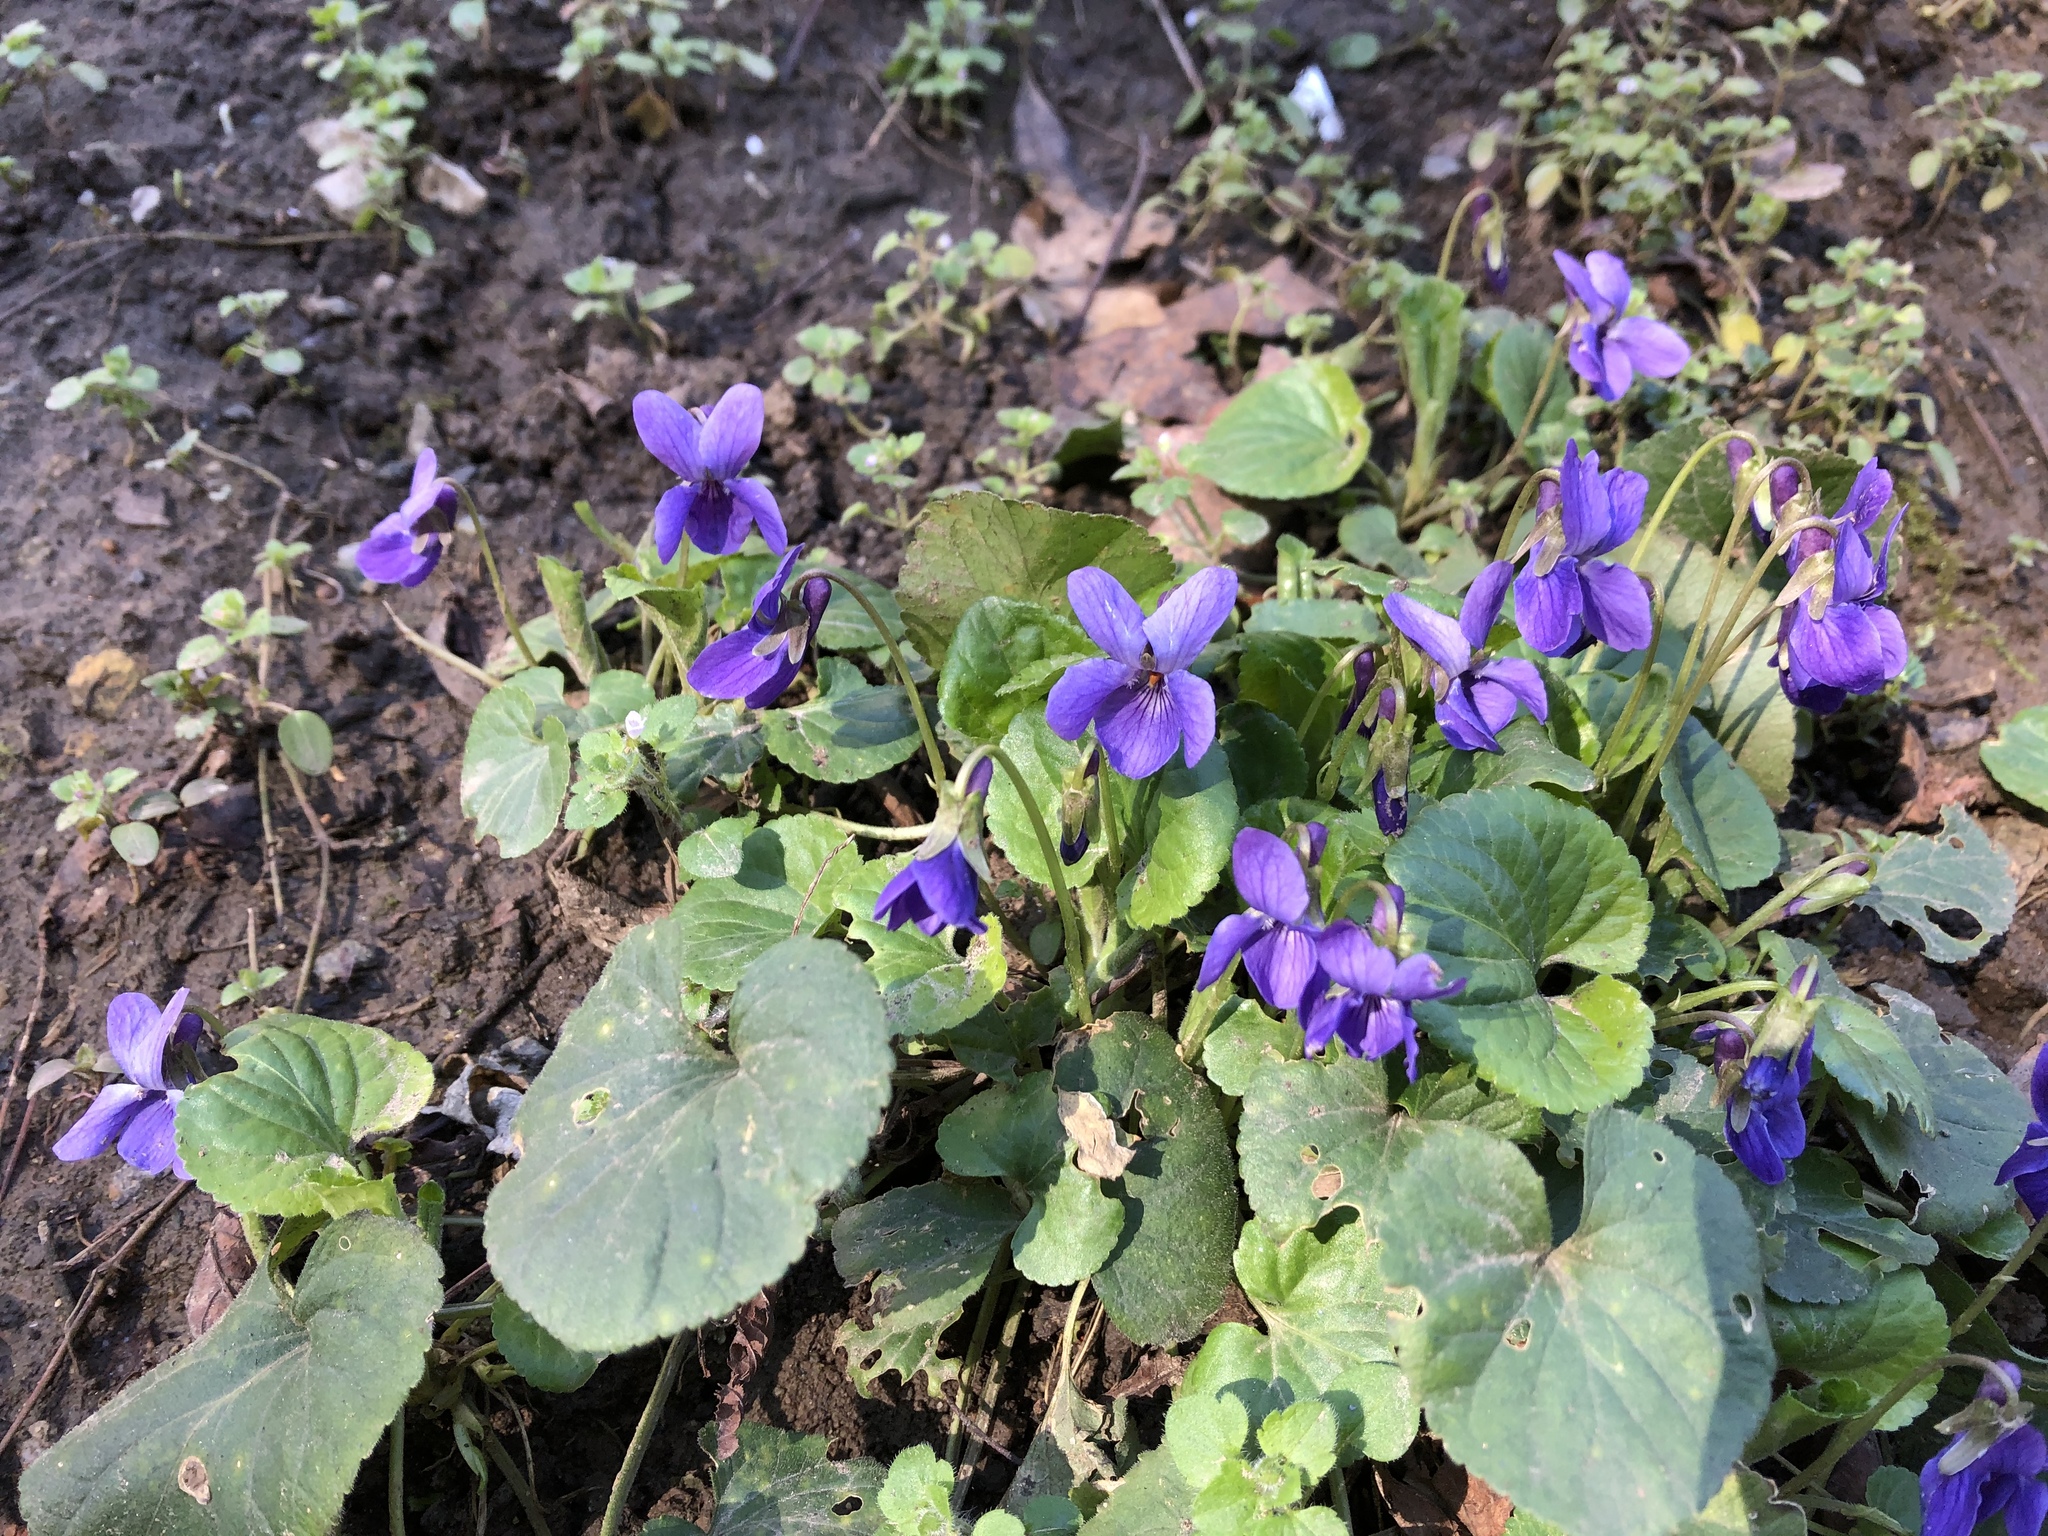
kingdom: Plantae
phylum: Tracheophyta
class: Magnoliopsida
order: Malpighiales
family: Violaceae
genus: Viola
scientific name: Viola odorata
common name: Sweet violet
